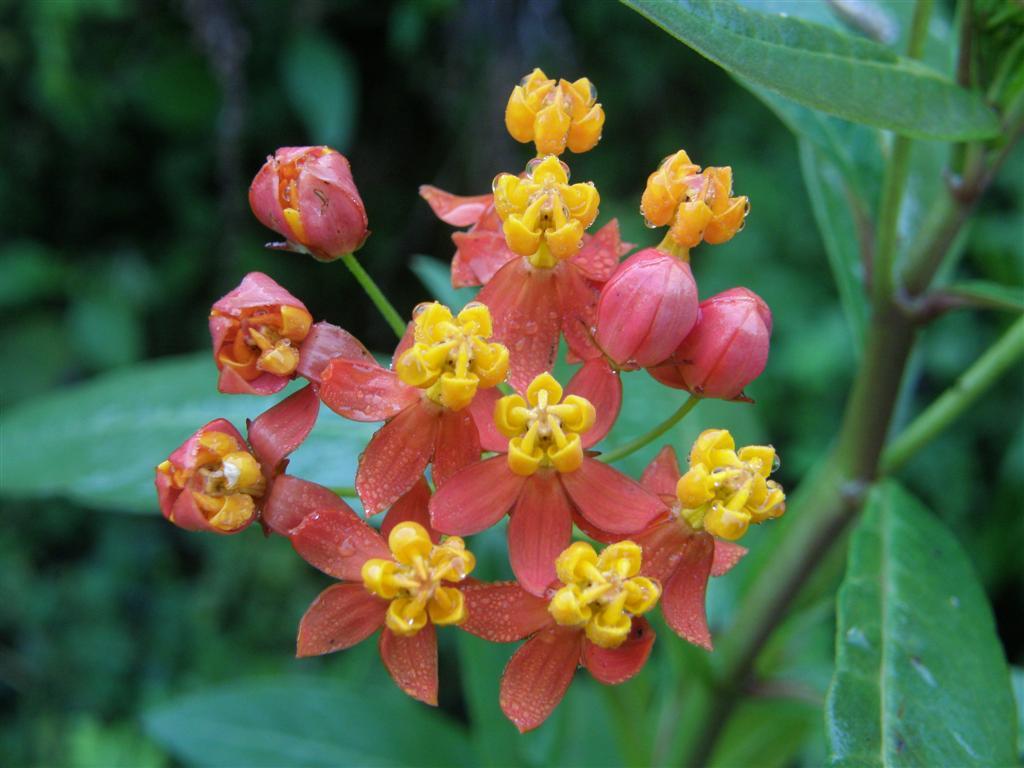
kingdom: Plantae
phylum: Tracheophyta
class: Magnoliopsida
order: Gentianales
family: Apocynaceae
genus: Asclepias
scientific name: Asclepias curassavica
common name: Bloodflower
